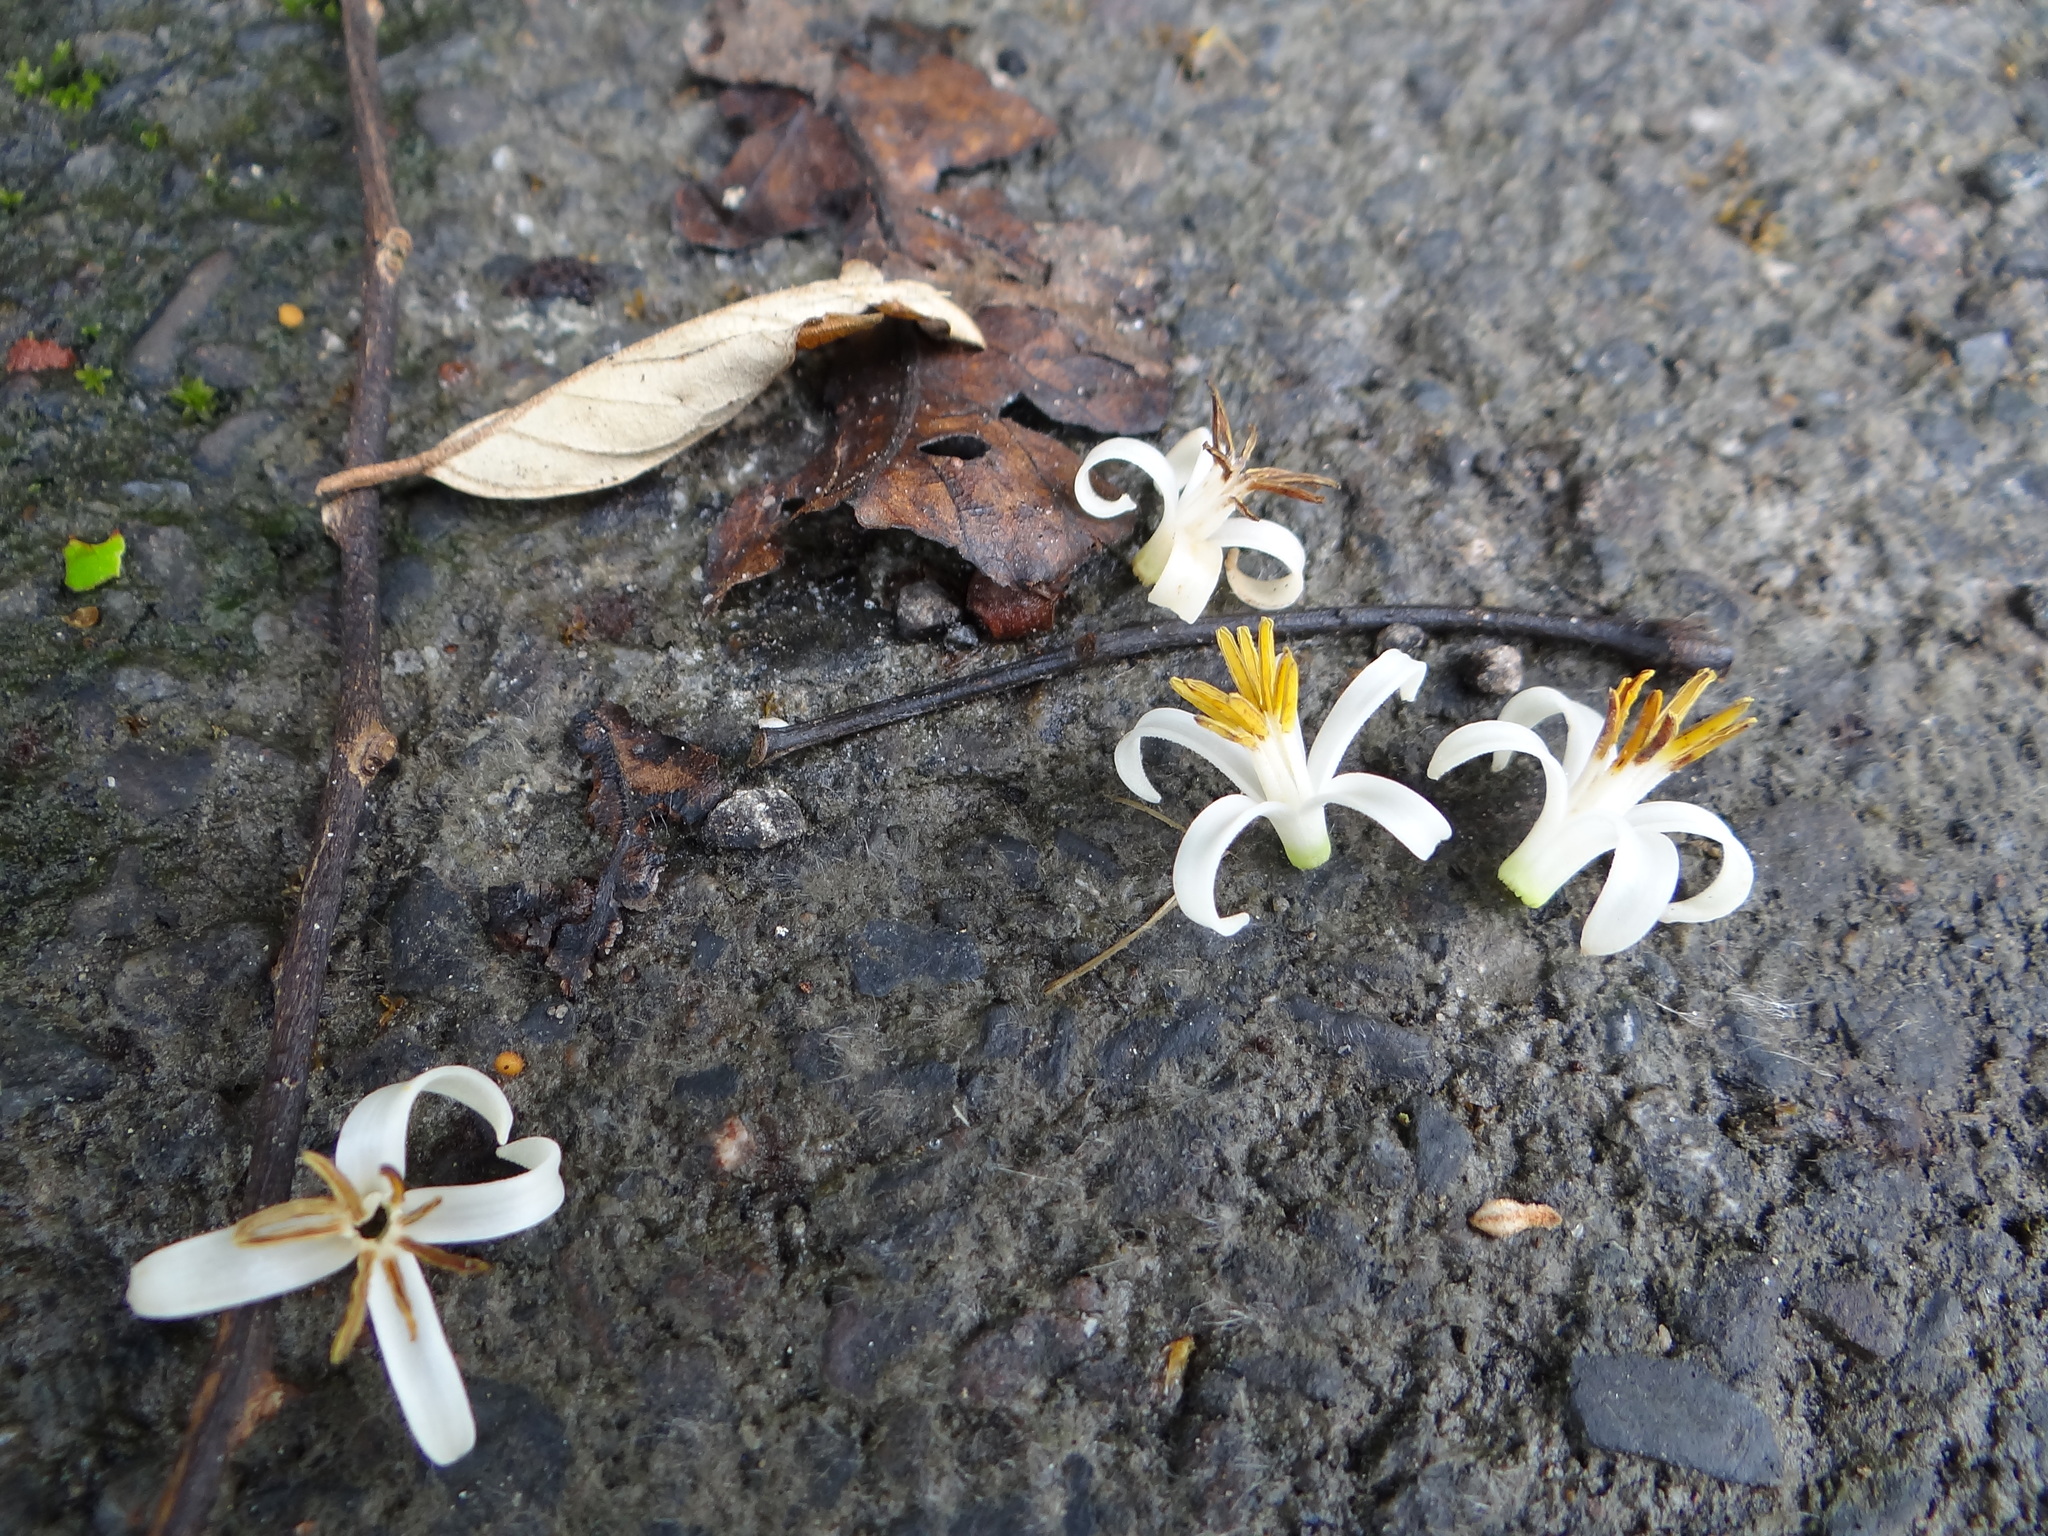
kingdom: Plantae
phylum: Tracheophyta
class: Magnoliopsida
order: Ericales
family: Styracaceae
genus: Styrax
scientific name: Styrax suberifolius
